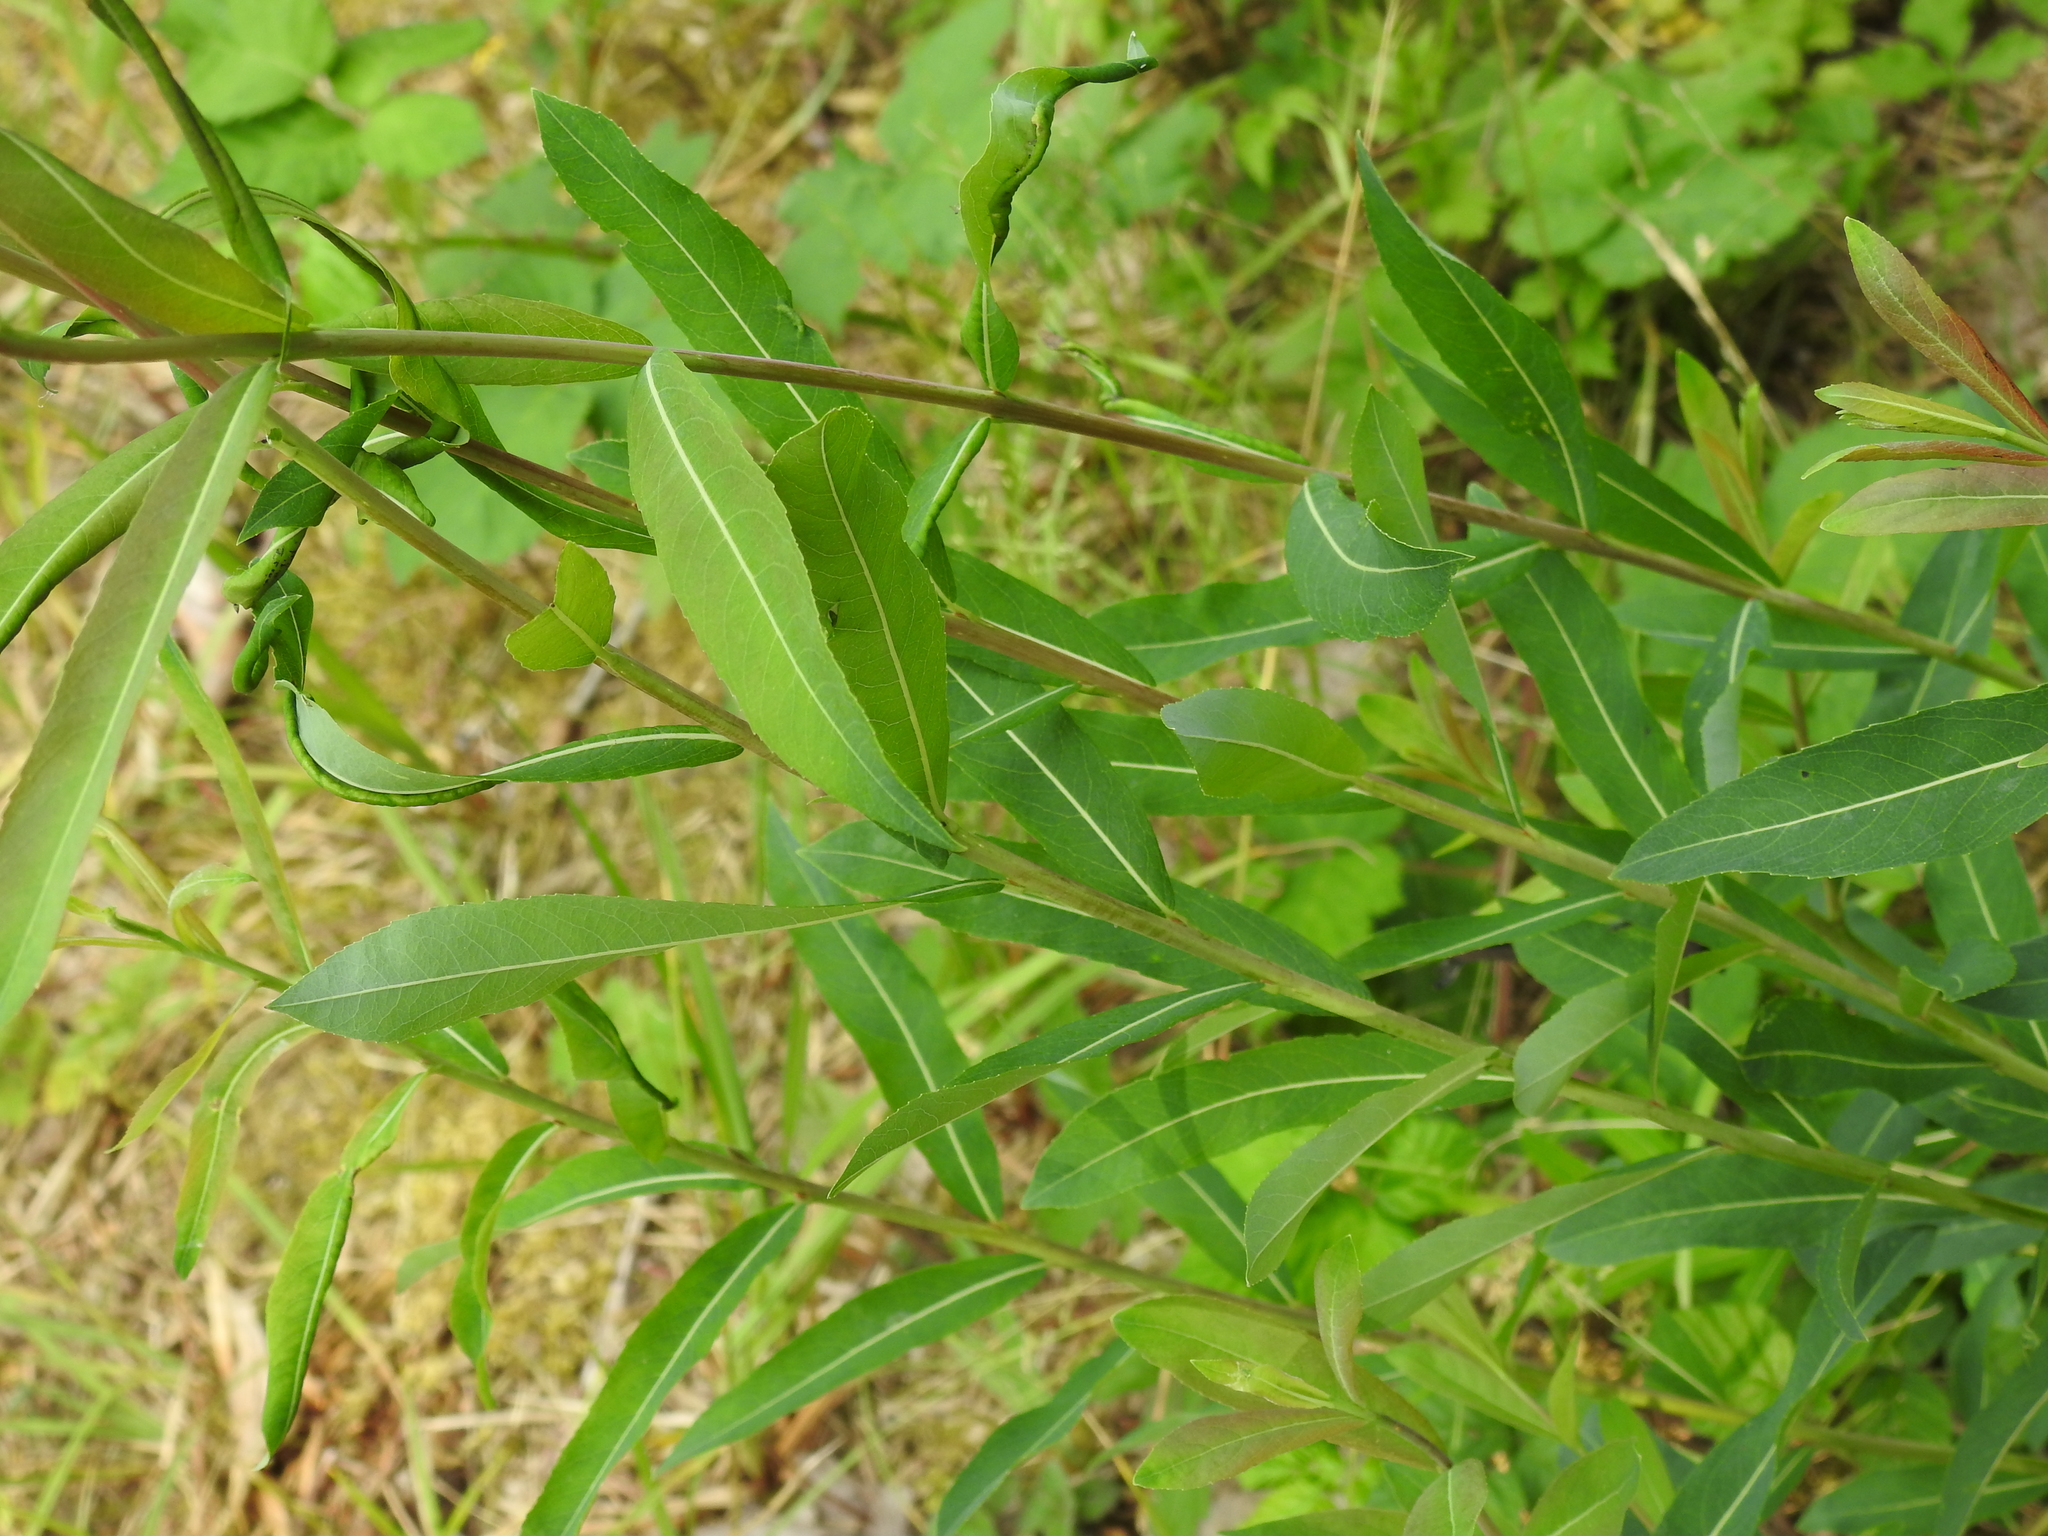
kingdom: Plantae
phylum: Tracheophyta
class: Magnoliopsida
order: Malpighiales
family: Salicaceae
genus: Salix
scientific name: Salix purpurea
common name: Purple willow
